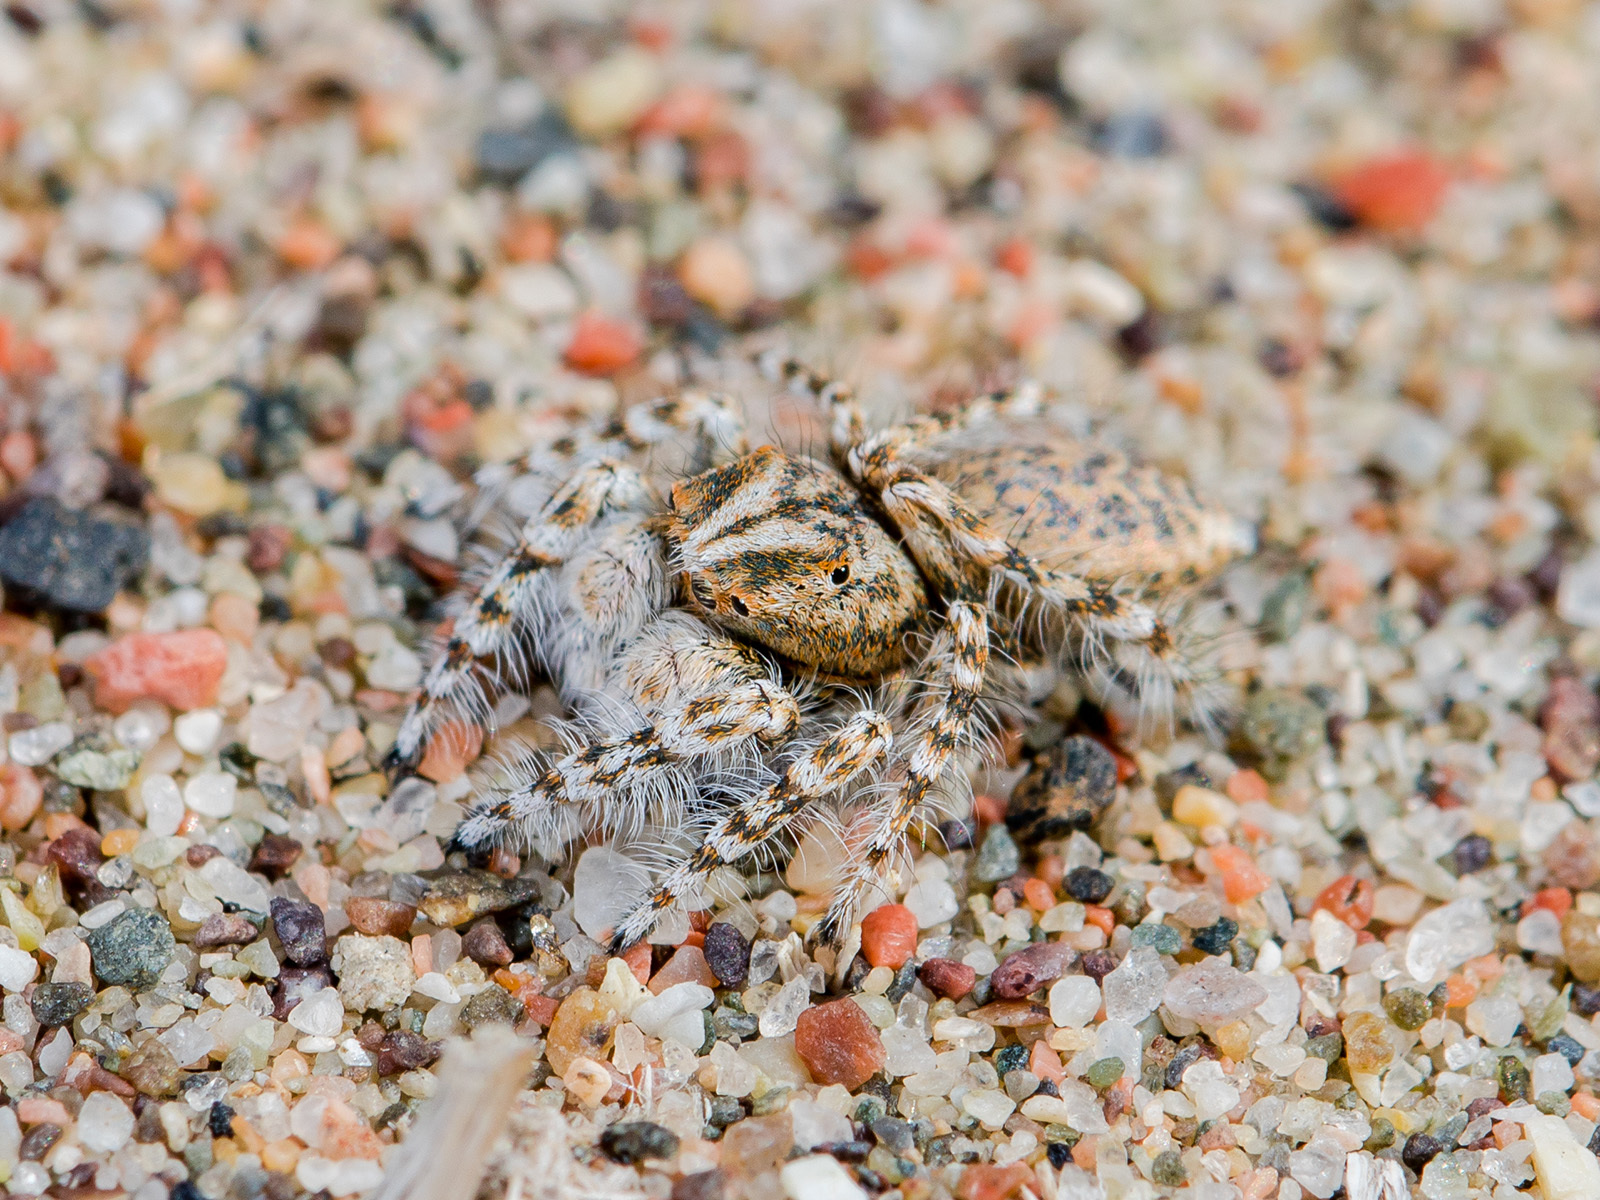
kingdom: Animalia
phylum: Arthropoda
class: Arachnida
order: Araneae
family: Salticidae
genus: Yllenus
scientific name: Yllenus uiguricus
